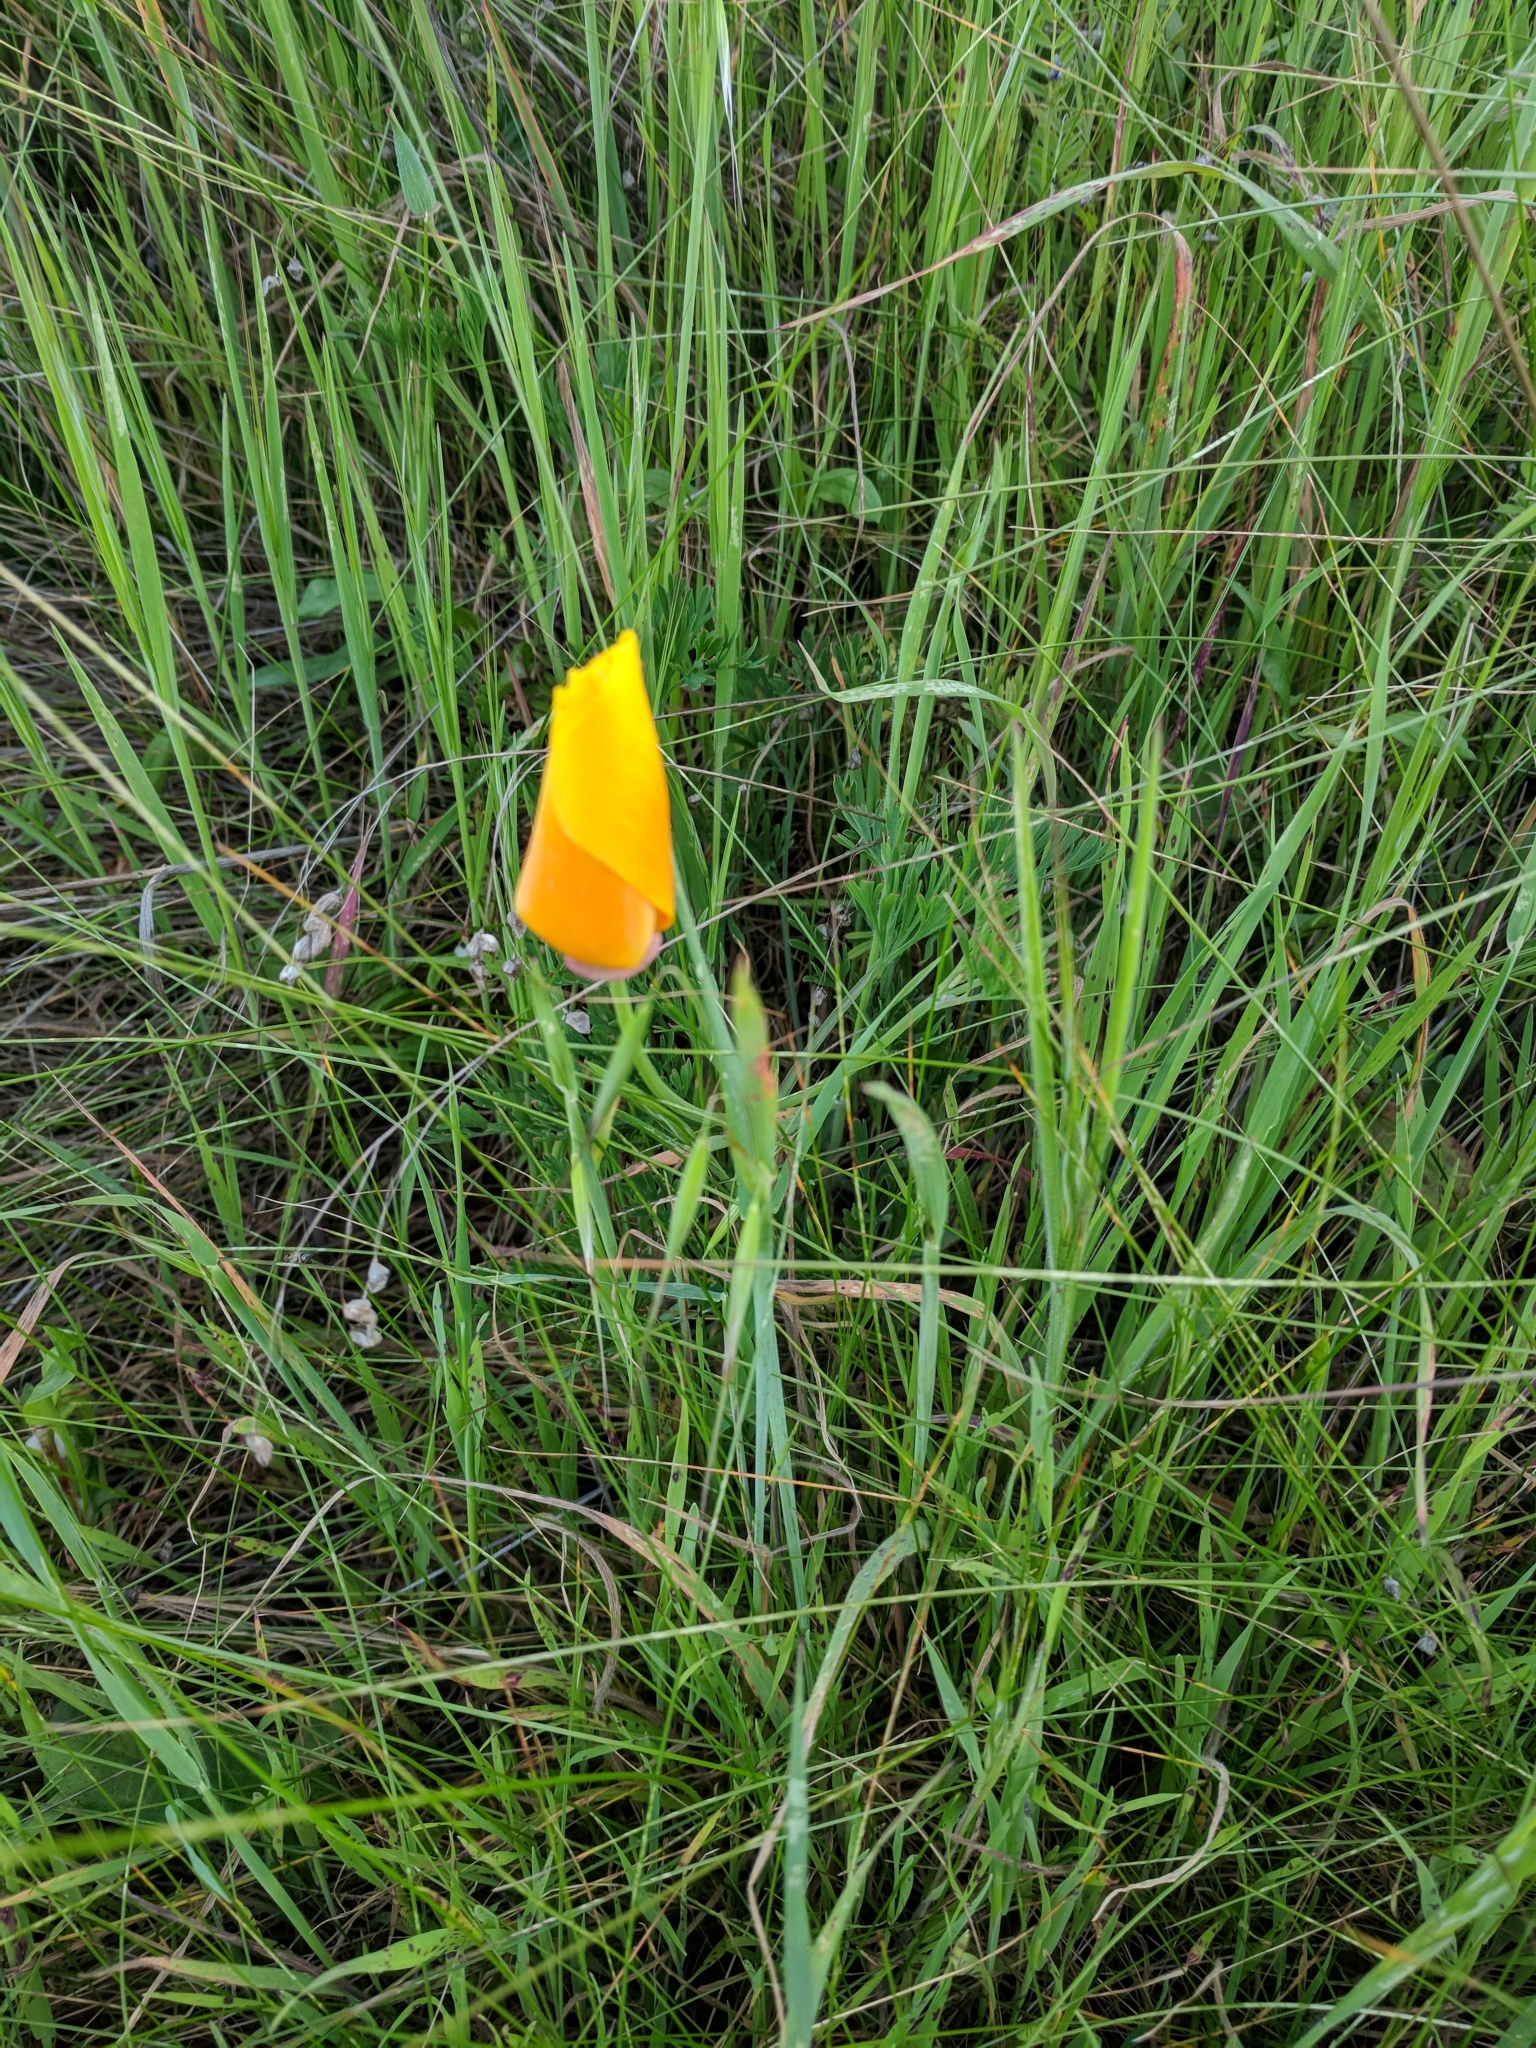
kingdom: Plantae
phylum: Tracheophyta
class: Magnoliopsida
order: Ranunculales
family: Papaveraceae
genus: Eschscholzia
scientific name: Eschscholzia californica
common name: California poppy
